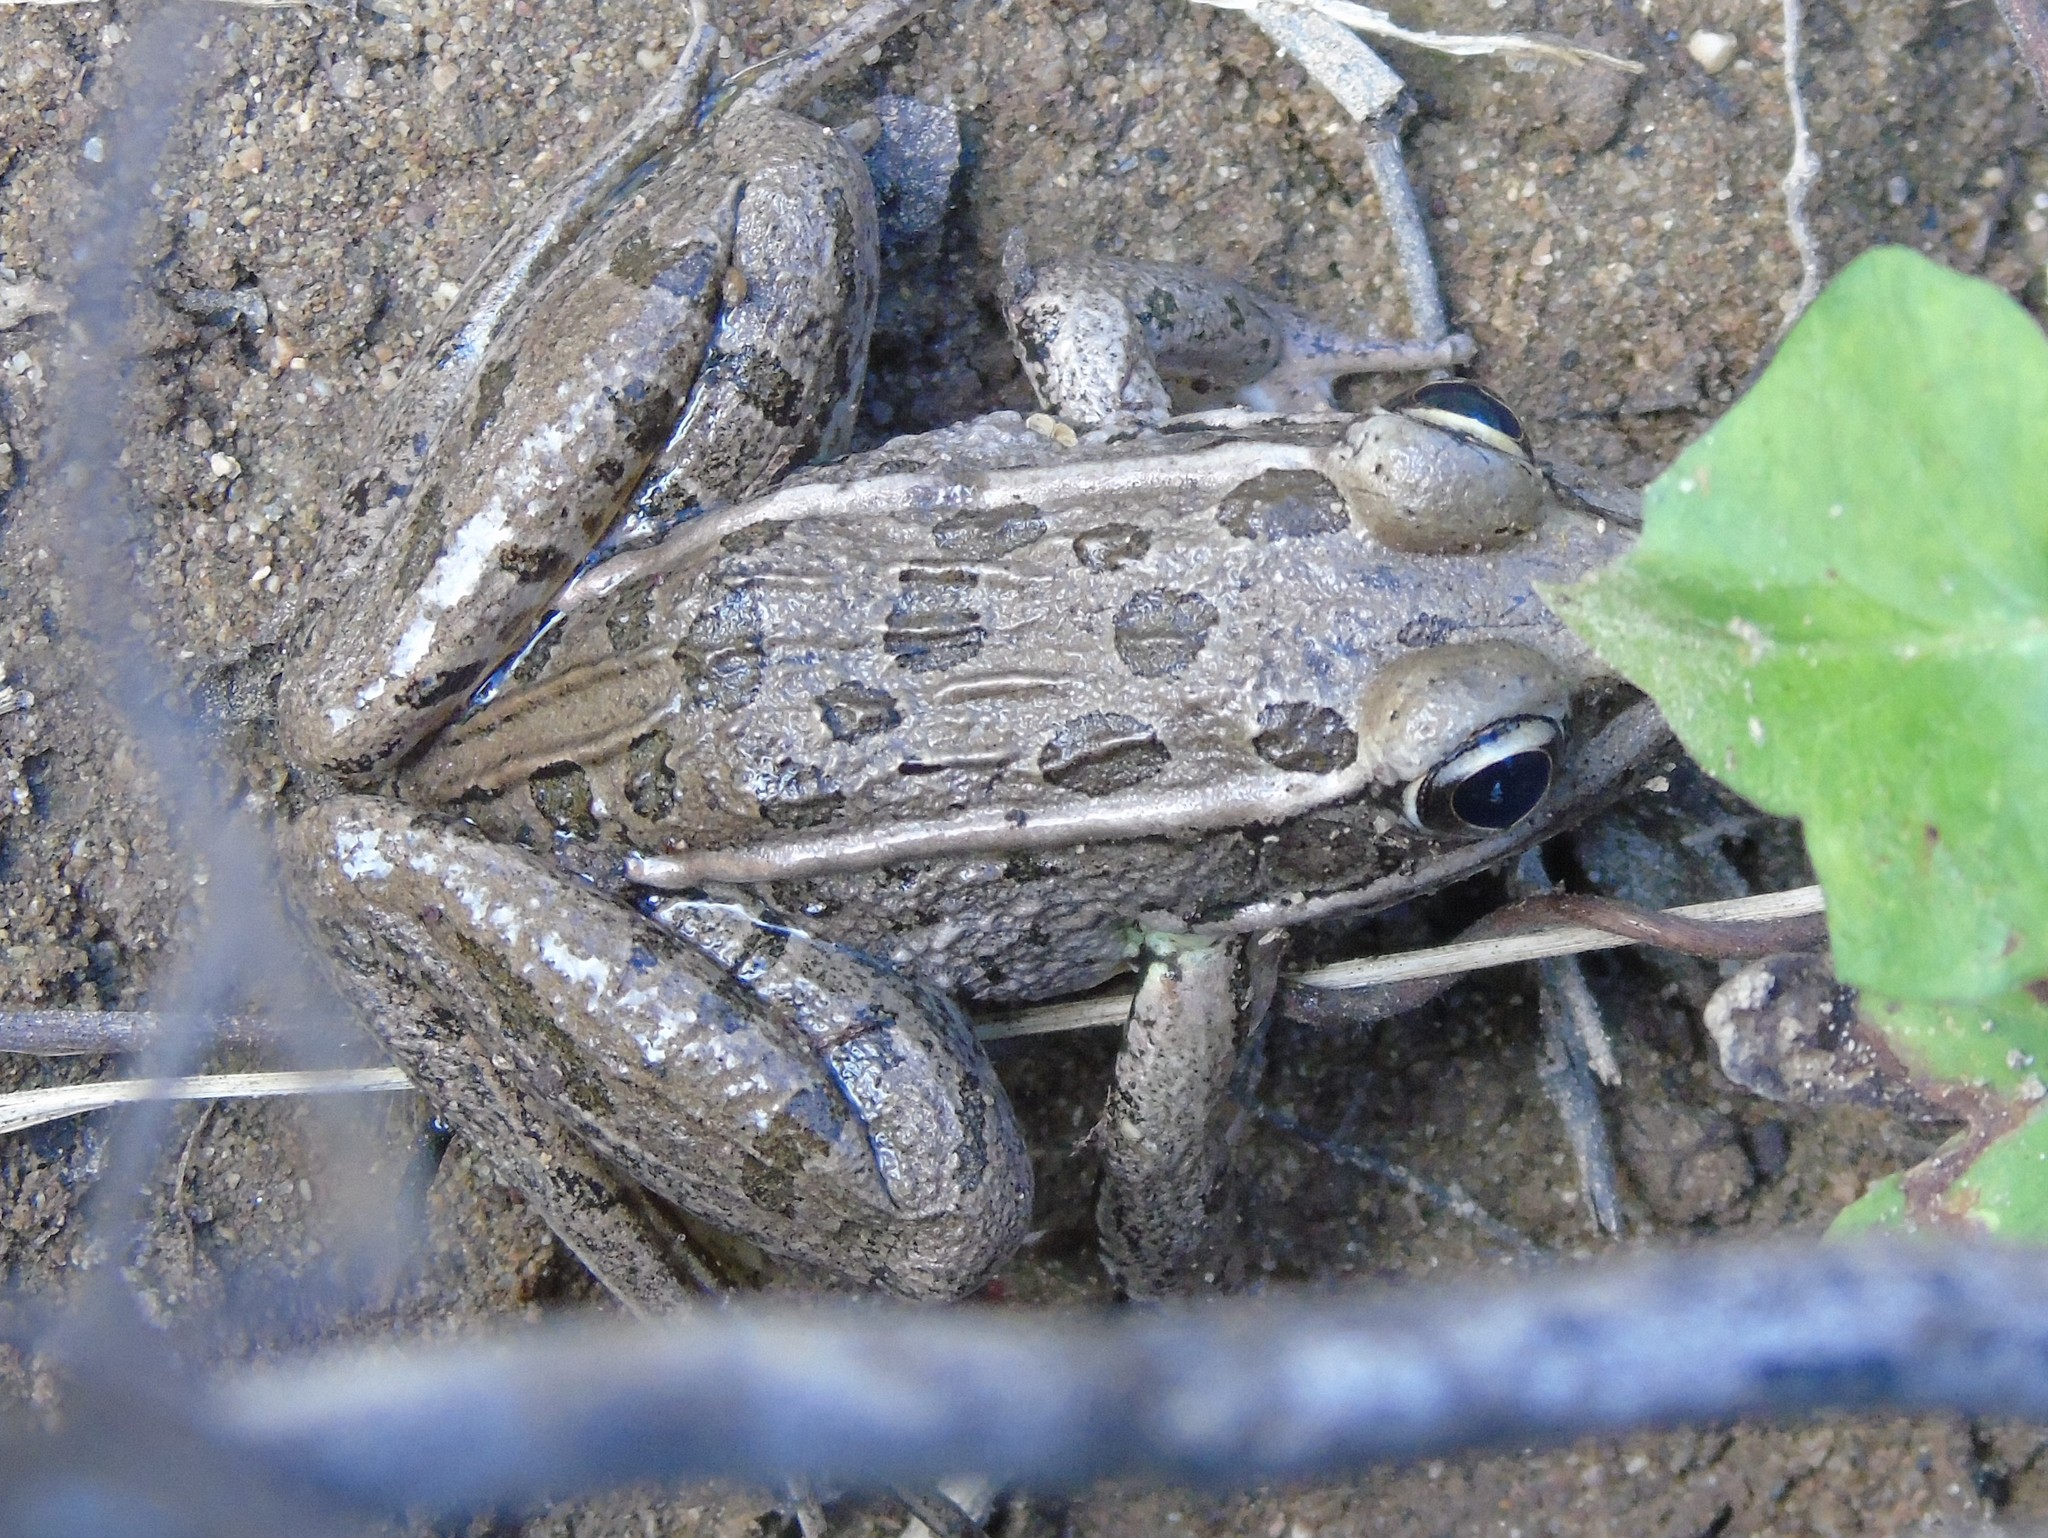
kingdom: Animalia
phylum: Chordata
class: Amphibia
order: Anura
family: Ranidae
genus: Lithobates
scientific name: Lithobates magnaocularis
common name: Northwest mexico leopard frog
